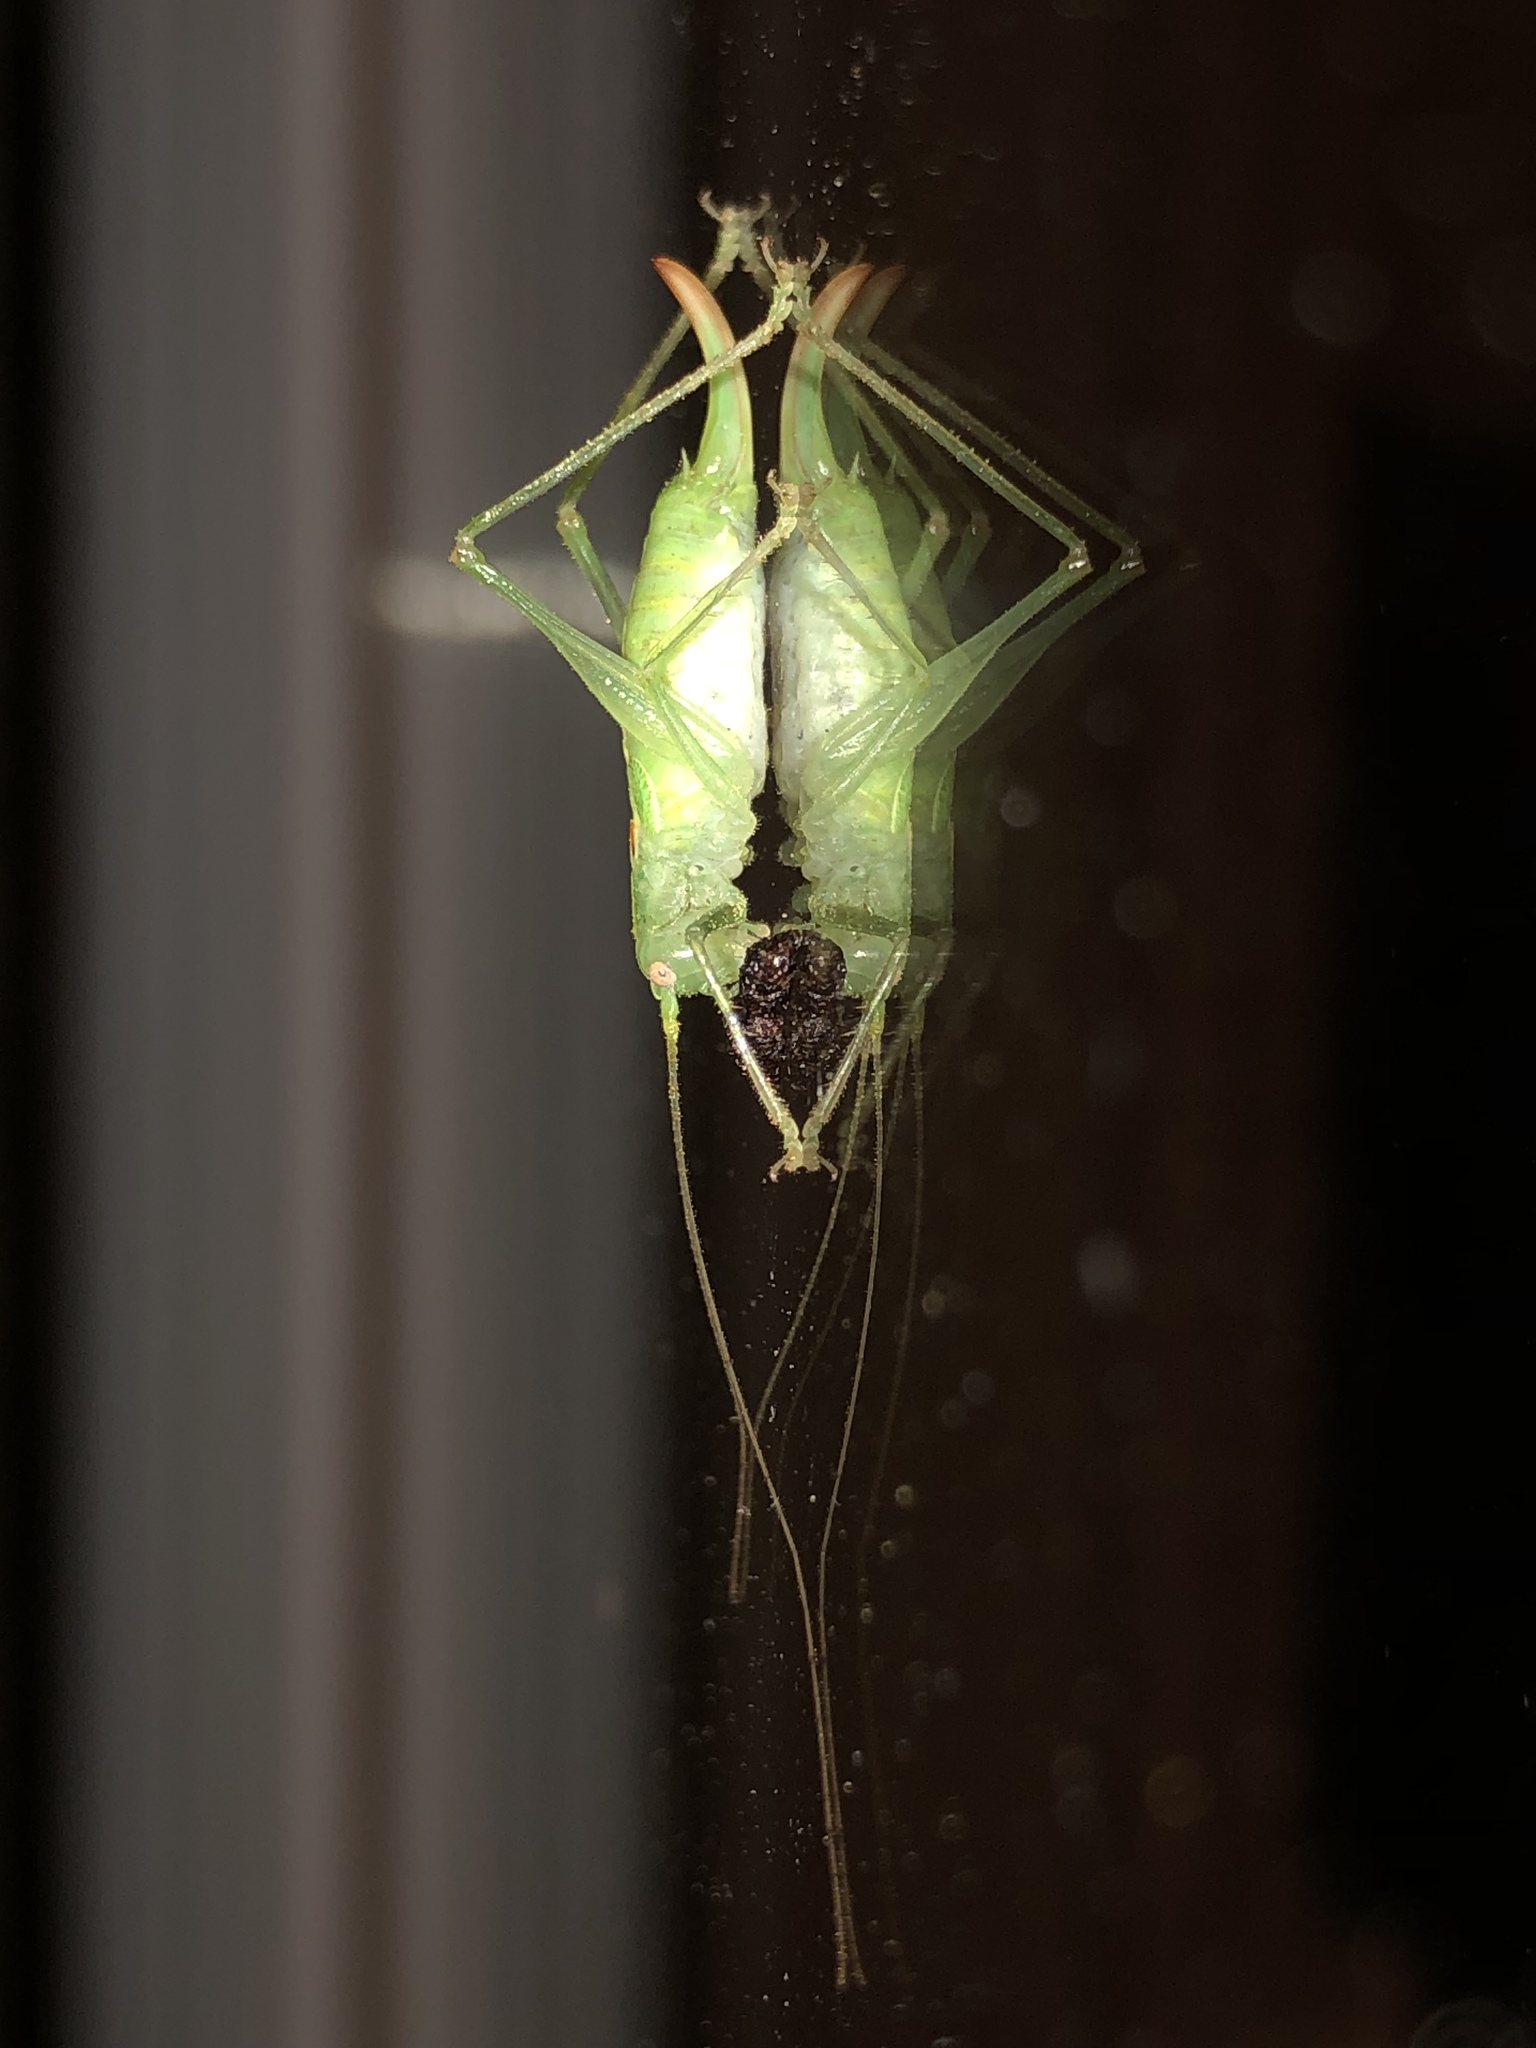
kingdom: Animalia
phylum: Arthropoda
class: Insecta
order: Orthoptera
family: Tettigoniidae
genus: Meconema
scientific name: Meconema meridionale
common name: Southern oak bush-cricket
